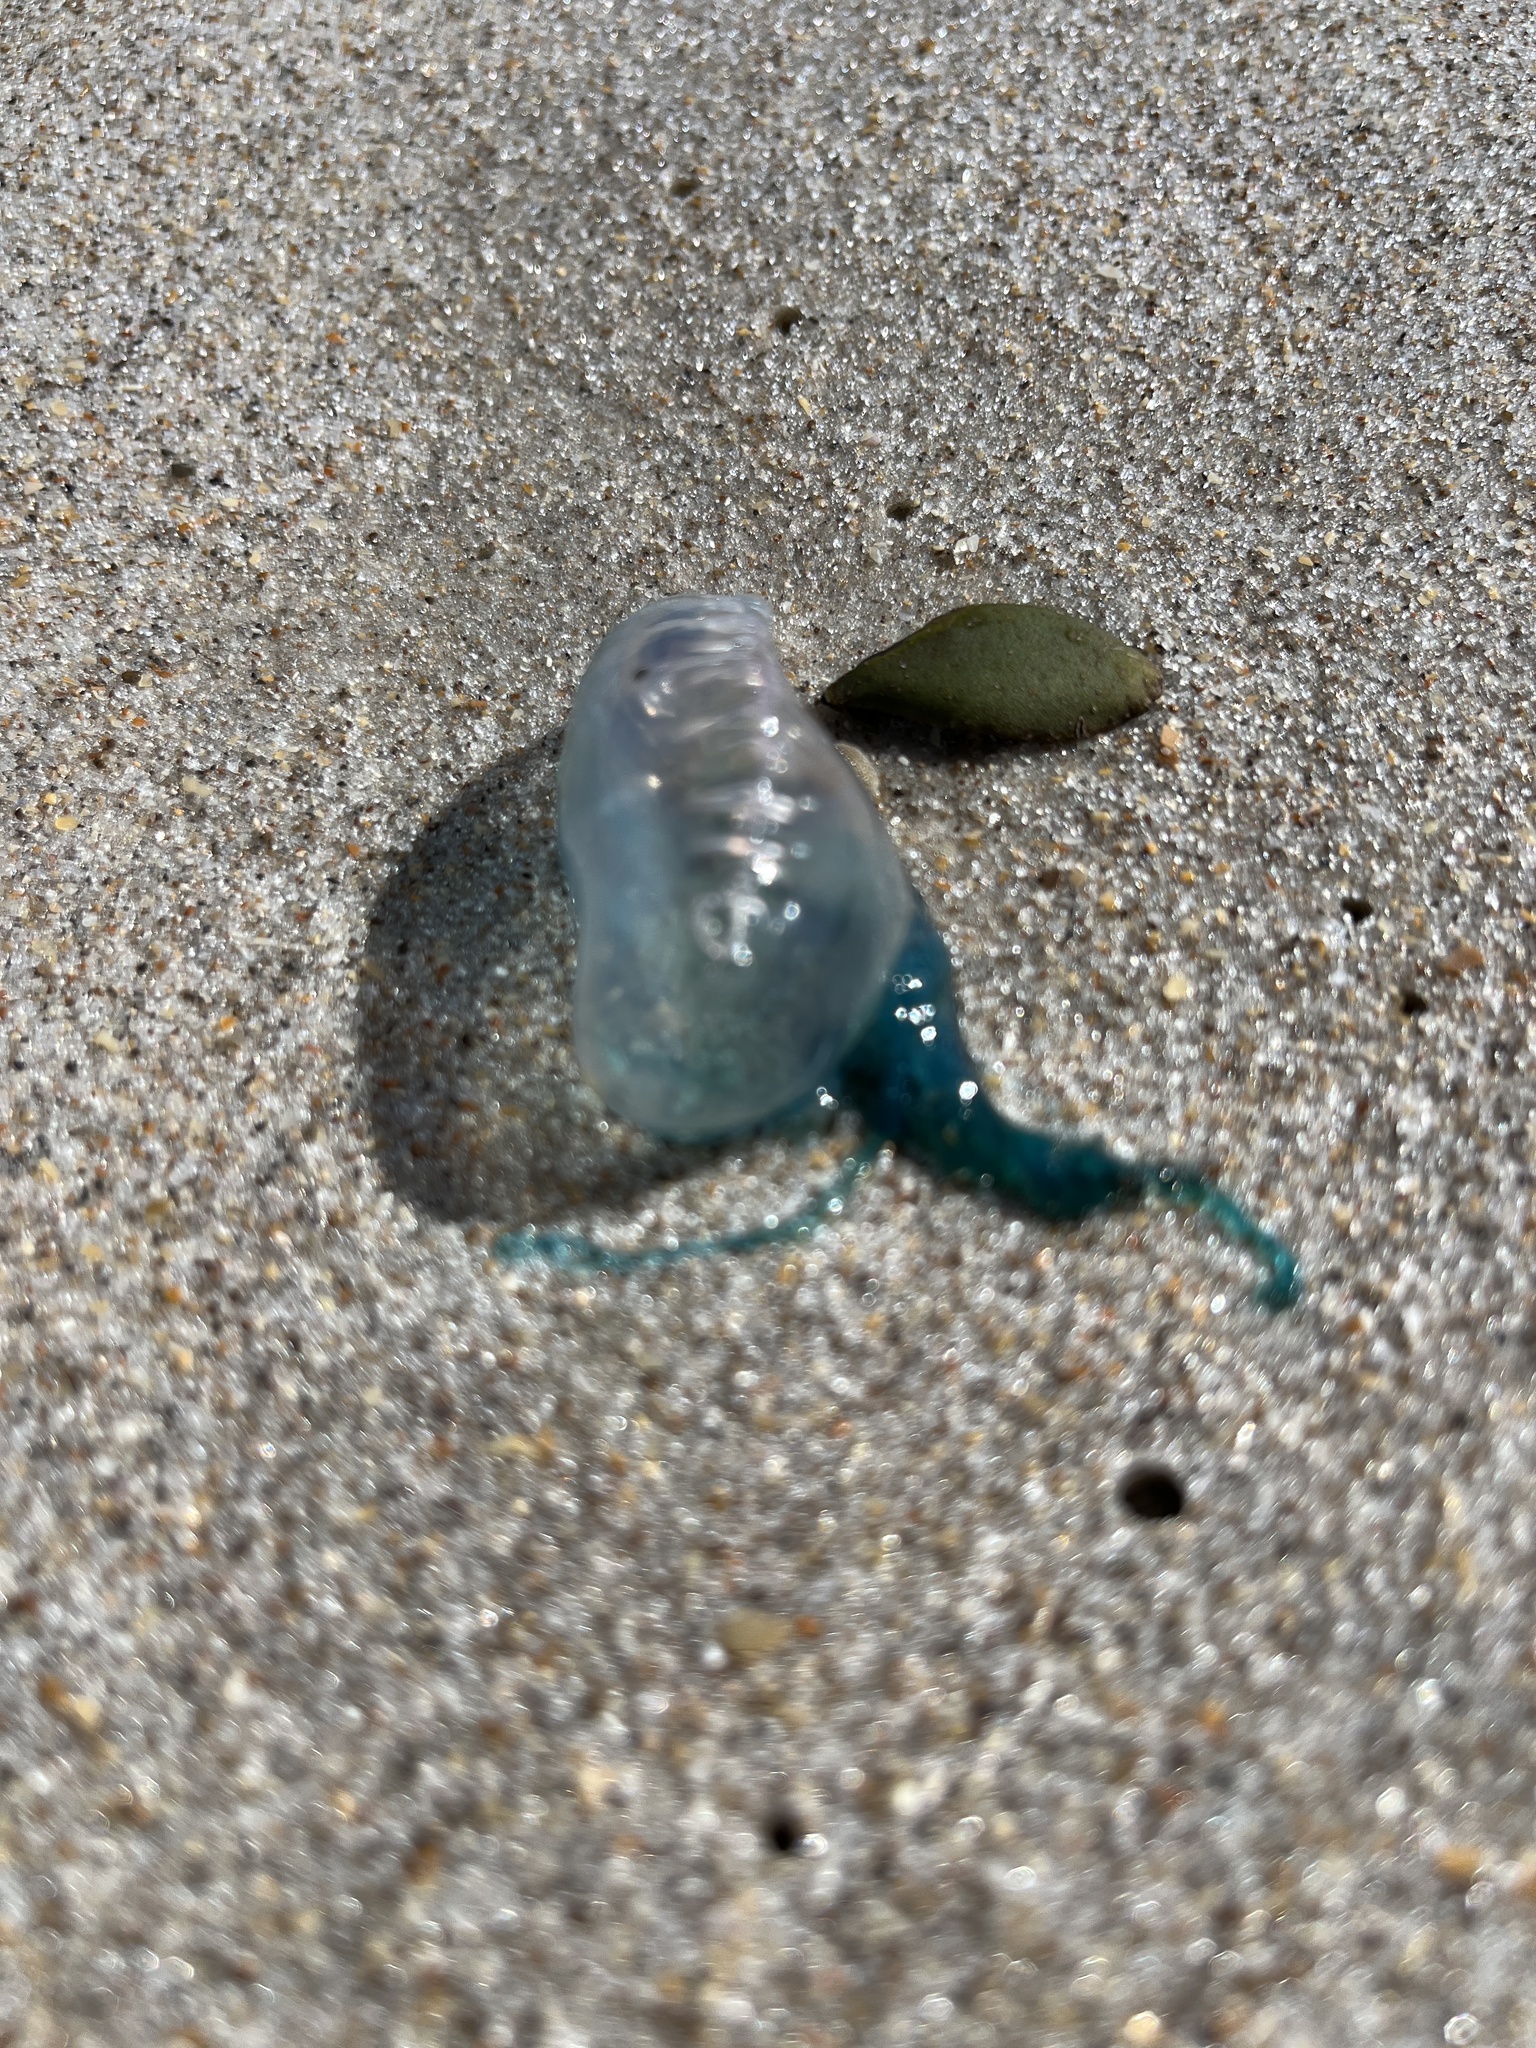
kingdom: Animalia
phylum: Cnidaria
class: Hydrozoa
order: Siphonophorae
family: Physaliidae
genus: Physalia
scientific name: Physalia physalis
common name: Portuguese man-of-war
